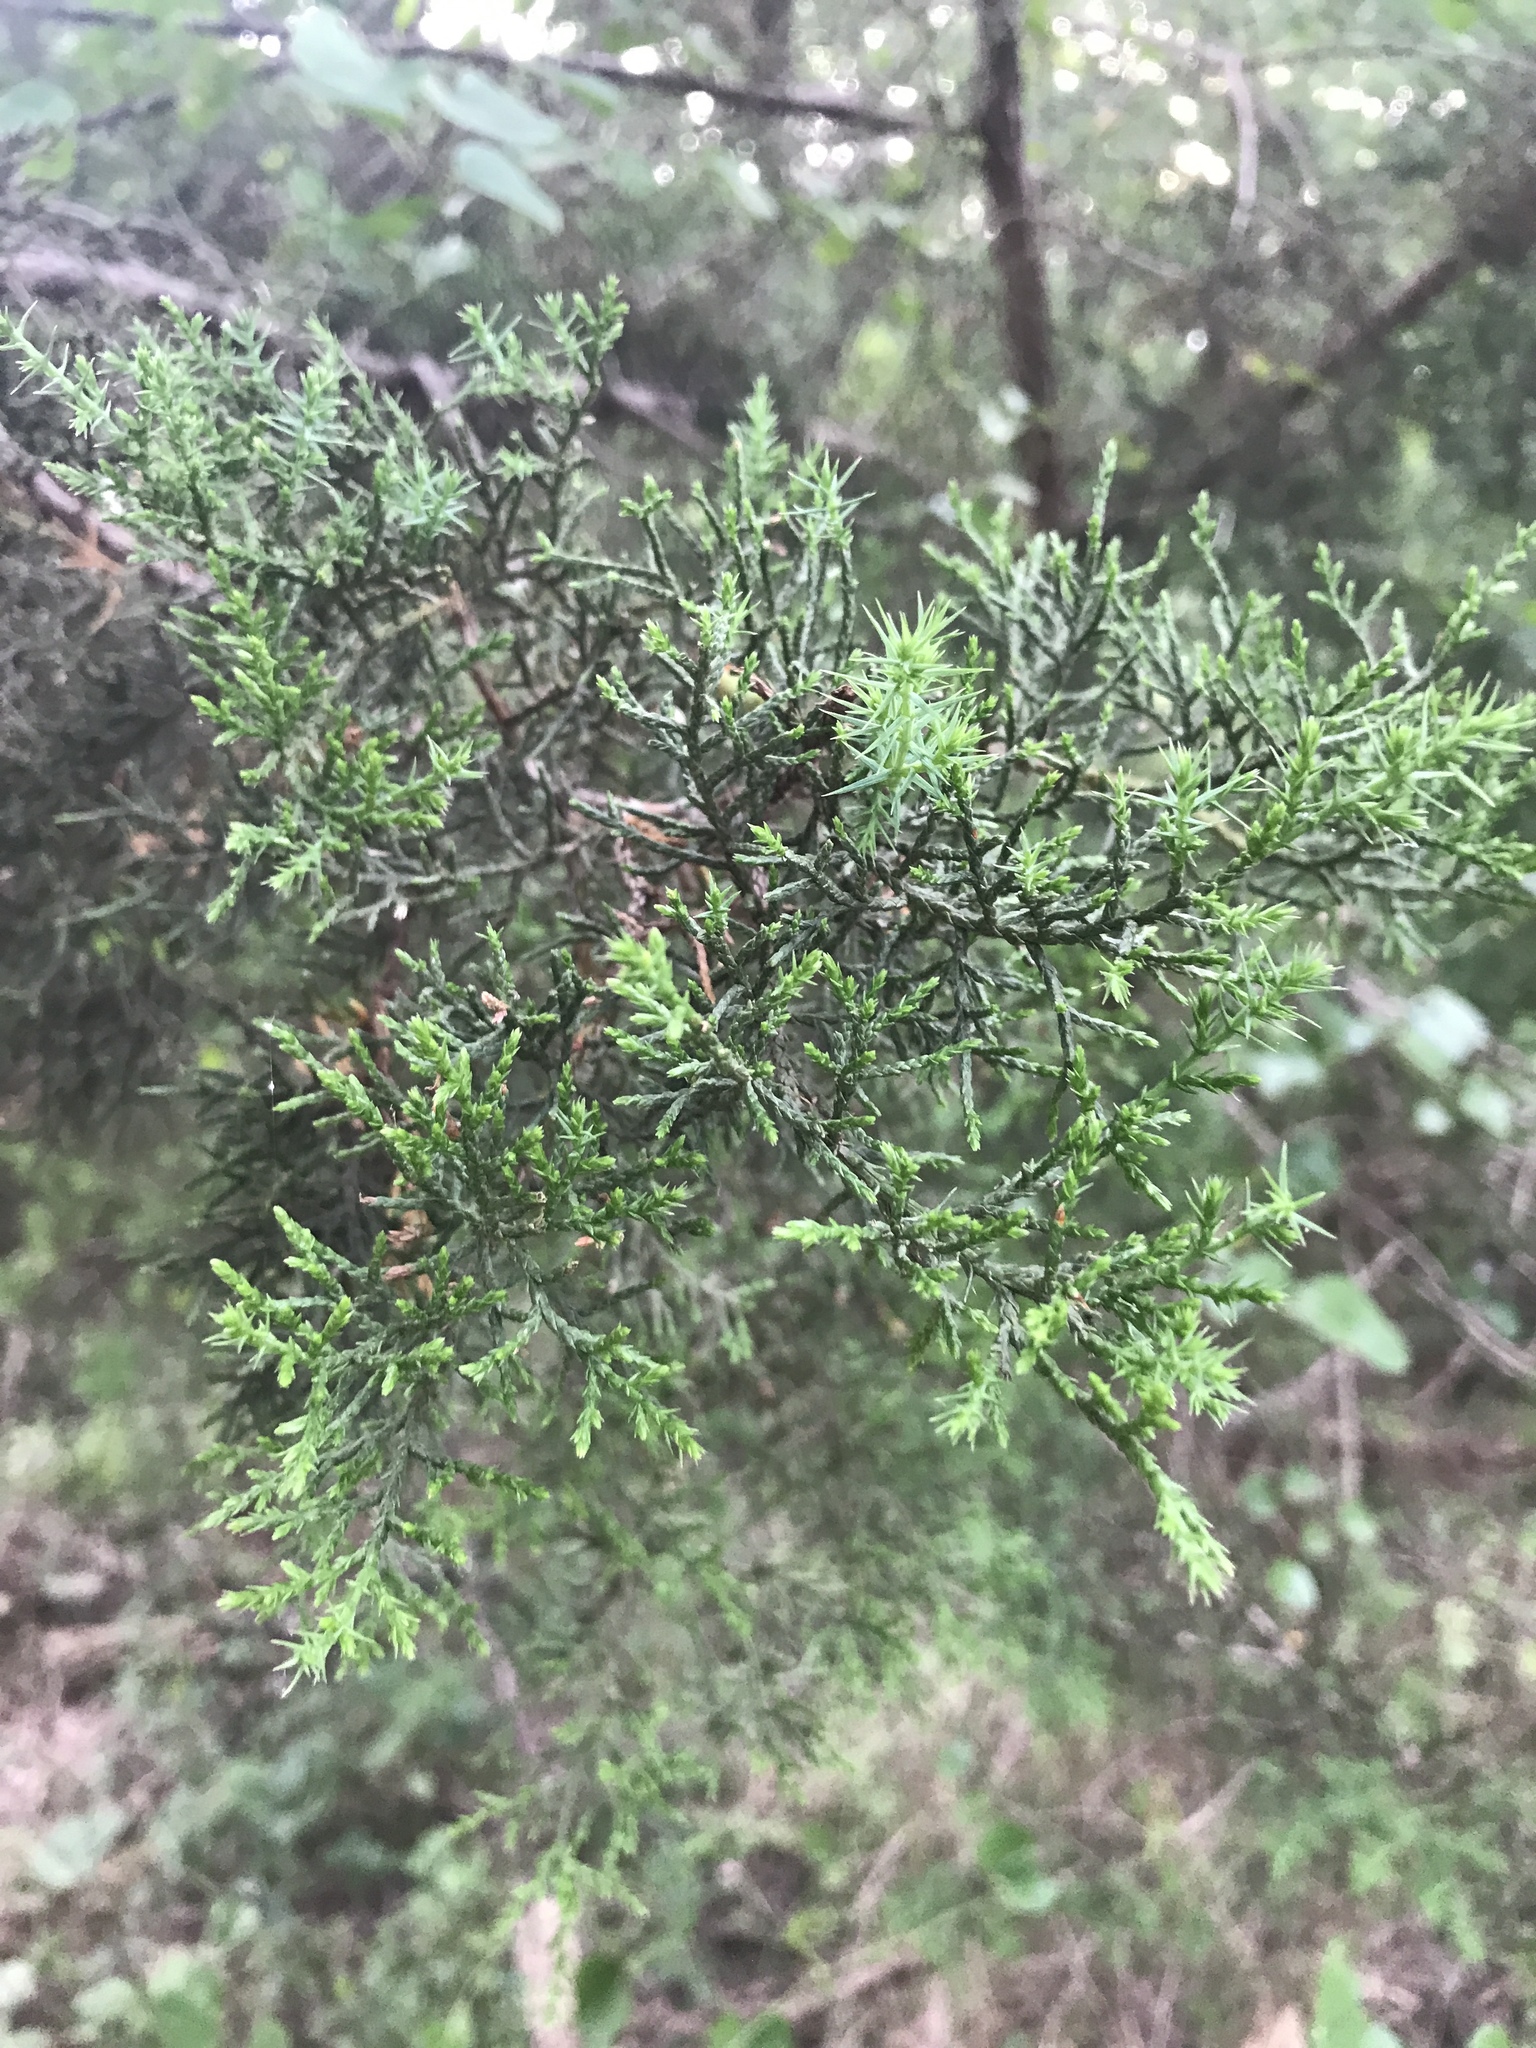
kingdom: Plantae
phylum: Tracheophyta
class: Pinopsida
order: Pinales
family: Cupressaceae
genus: Juniperus
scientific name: Juniperus ashei
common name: Mexican juniper
